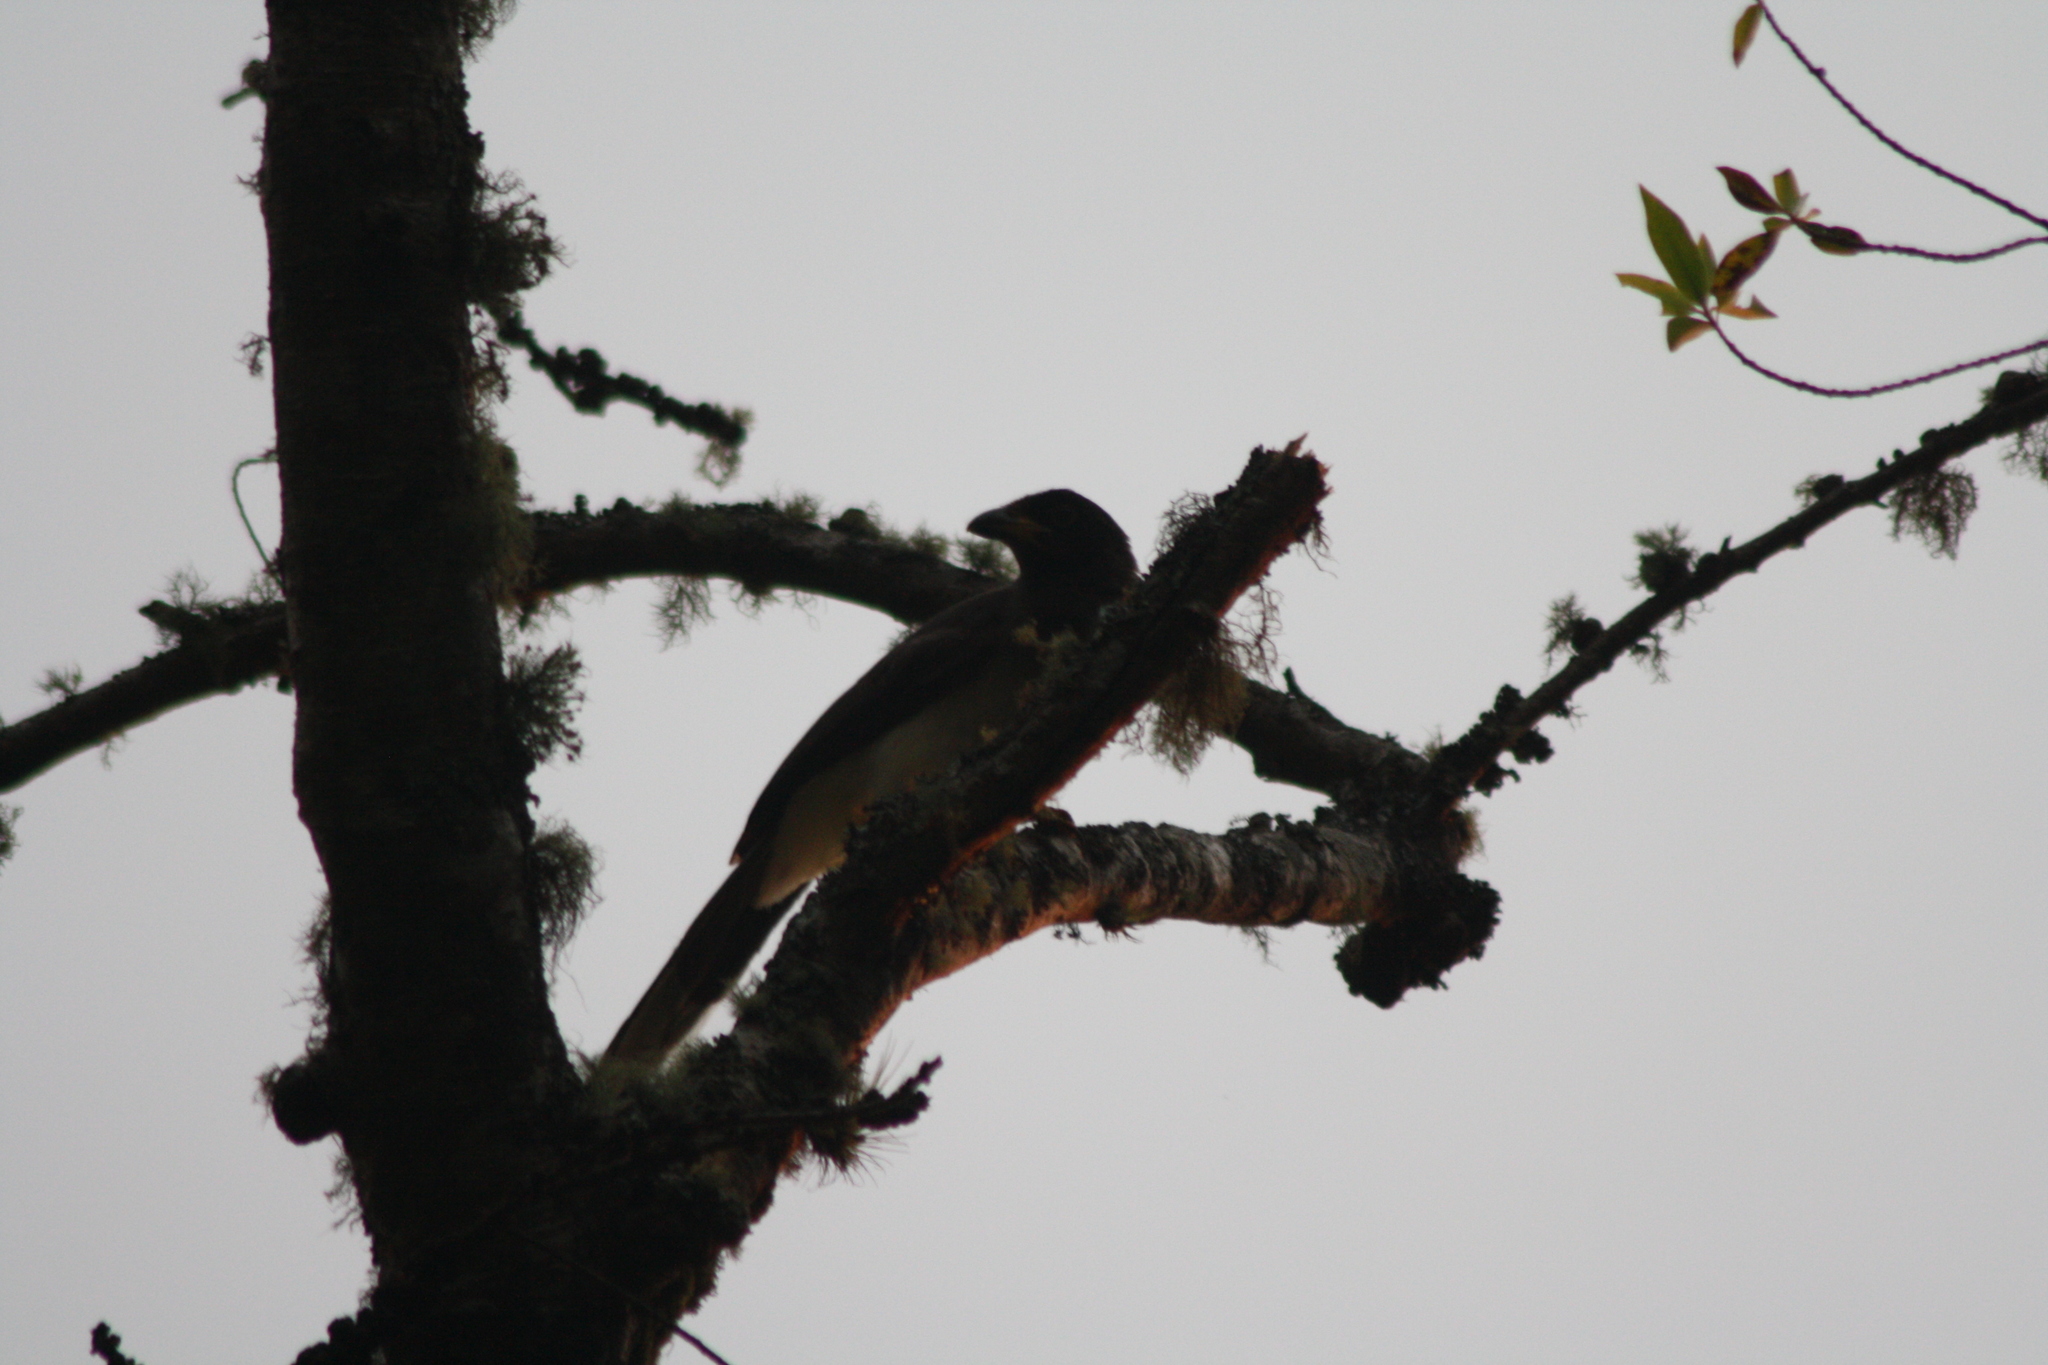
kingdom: Animalia
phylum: Chordata
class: Aves
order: Passeriformes
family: Corvidae
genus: Psilorhinus
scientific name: Psilorhinus morio
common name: Brown jay
